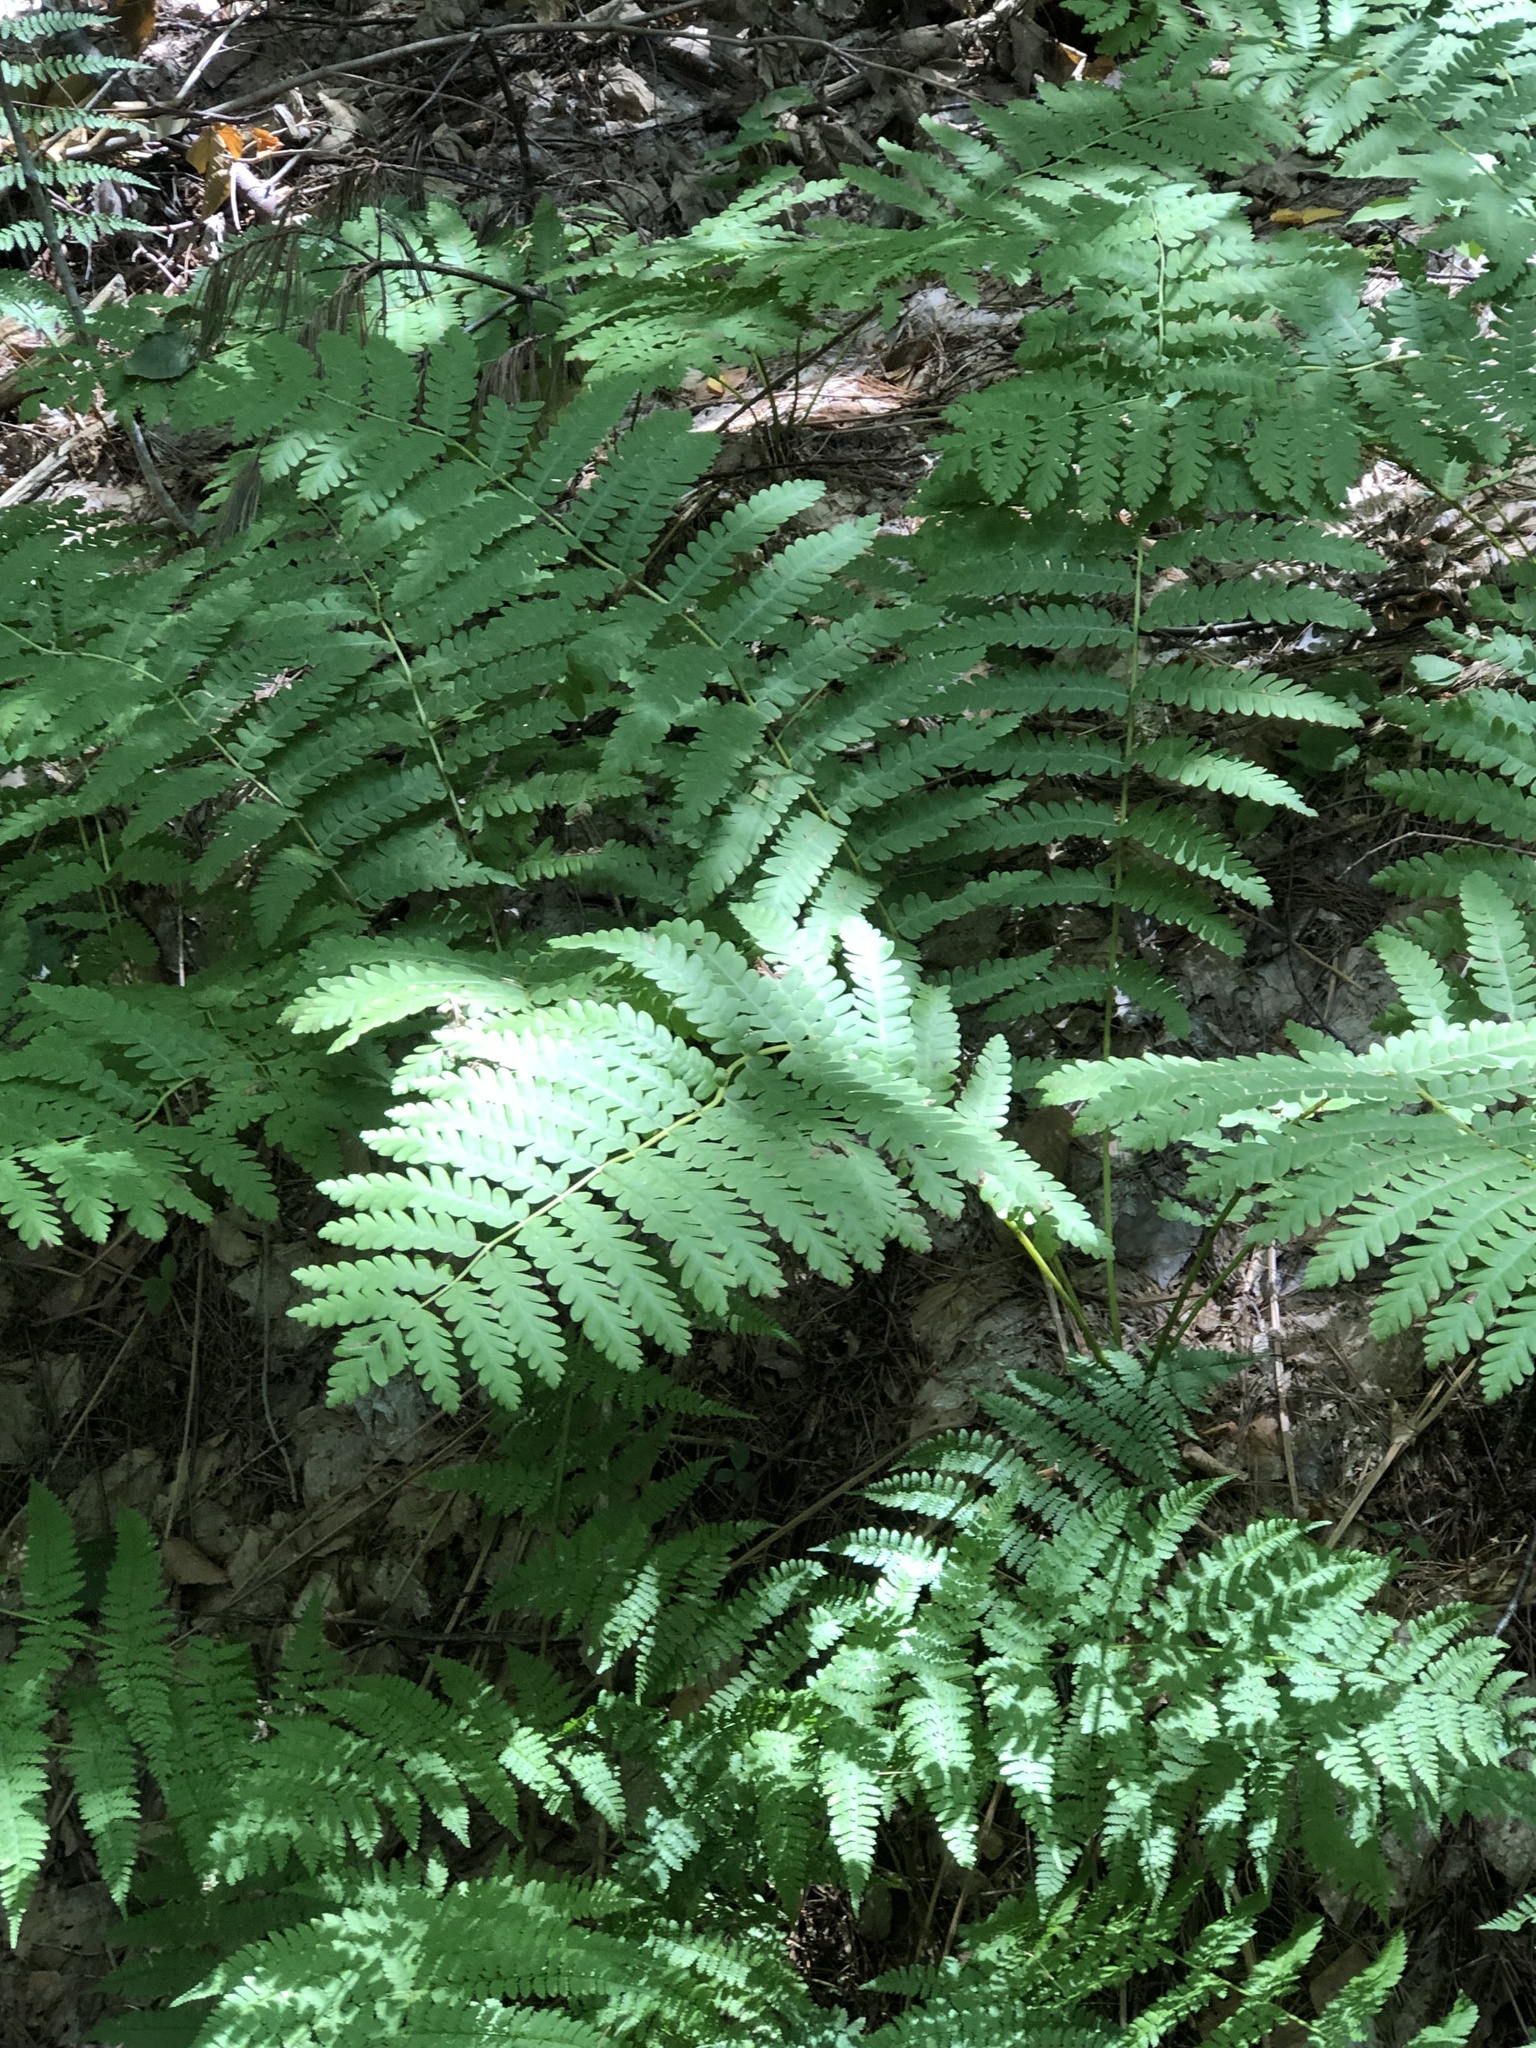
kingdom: Plantae
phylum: Tracheophyta
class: Polypodiopsida
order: Osmundales
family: Osmundaceae
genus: Claytosmunda
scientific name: Claytosmunda claytoniana
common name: Clayton's fern
